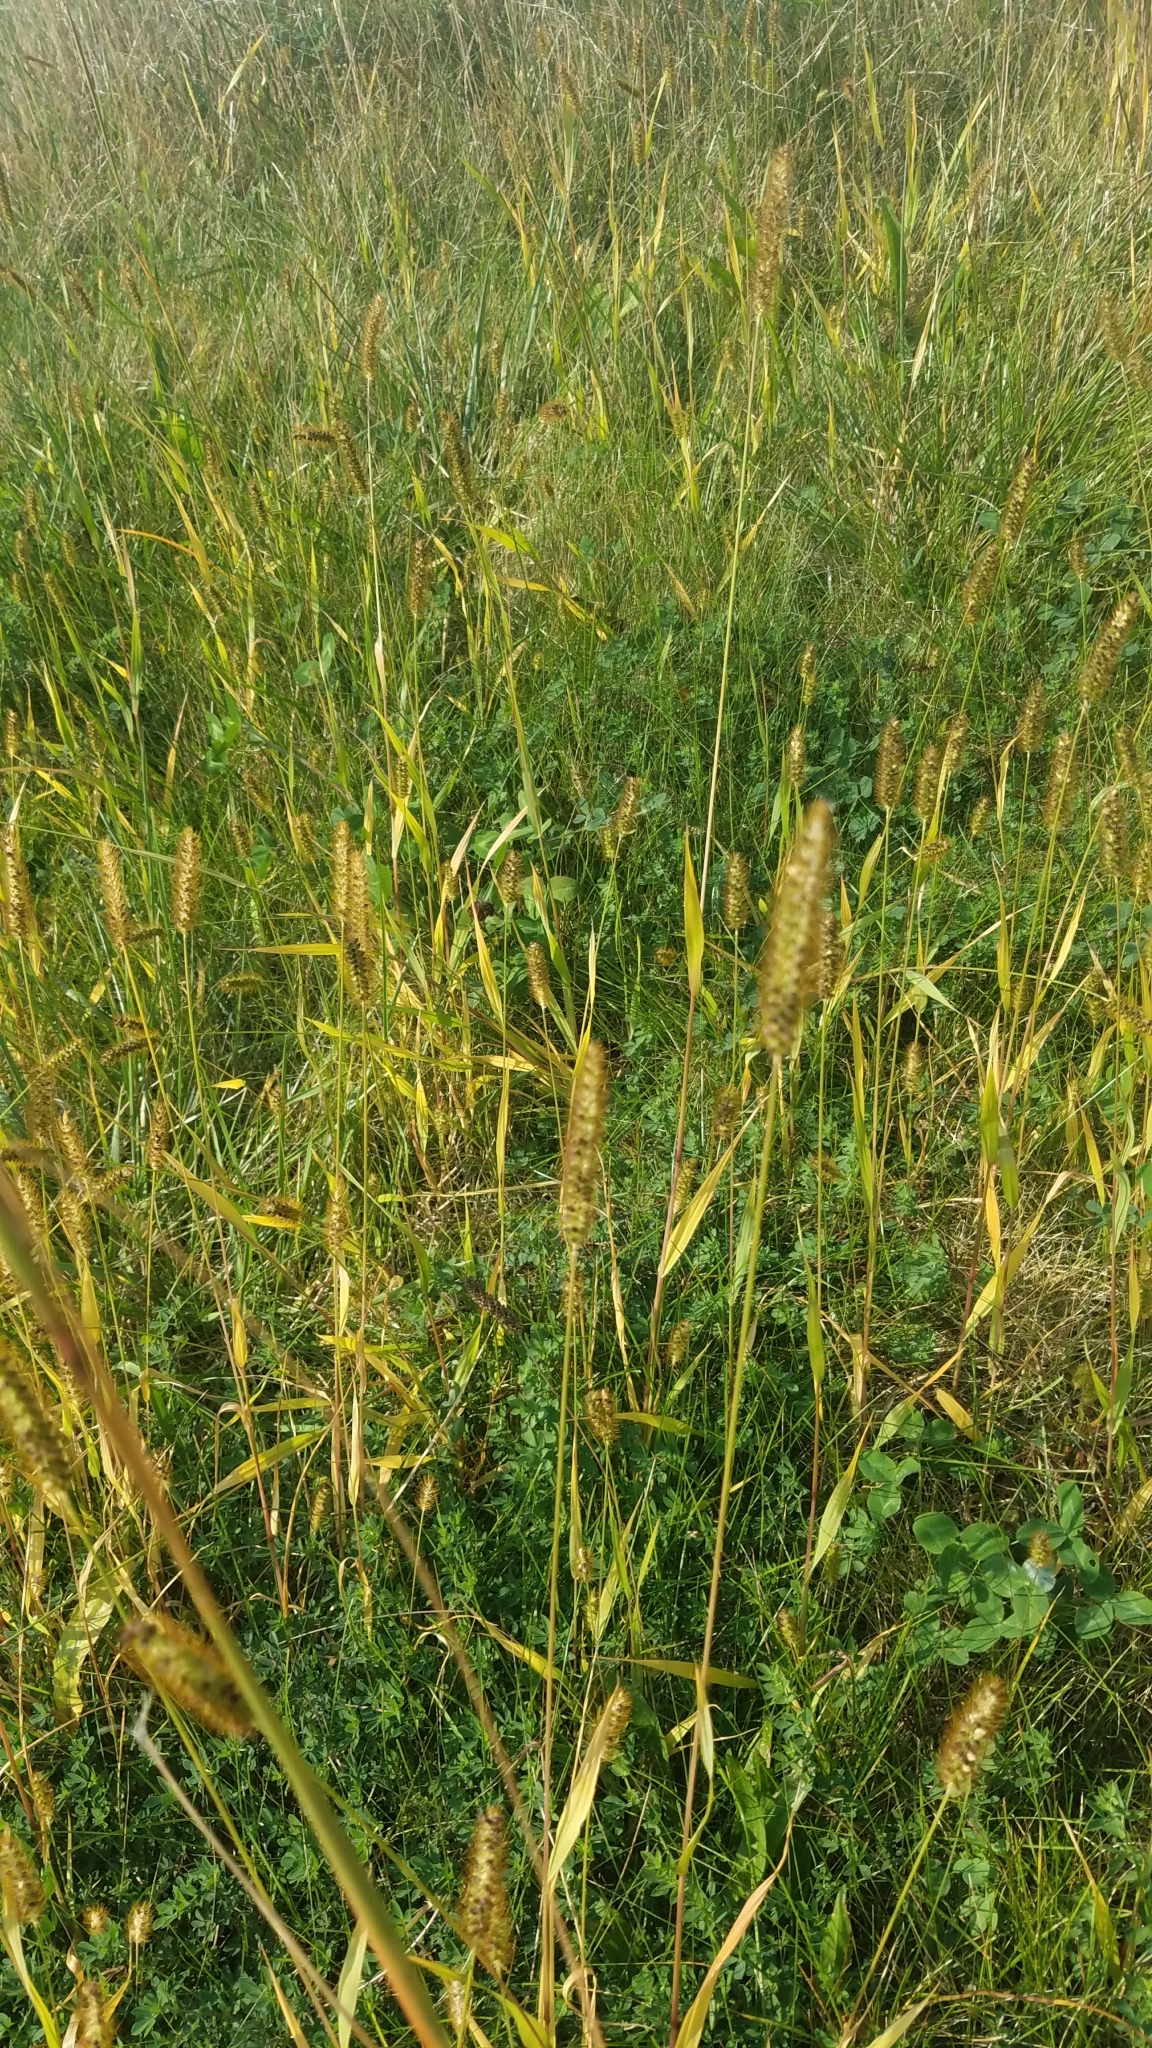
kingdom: Plantae
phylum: Tracheophyta
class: Liliopsida
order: Poales
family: Poaceae
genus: Setaria
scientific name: Setaria pumila
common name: Yellow bristle-grass
